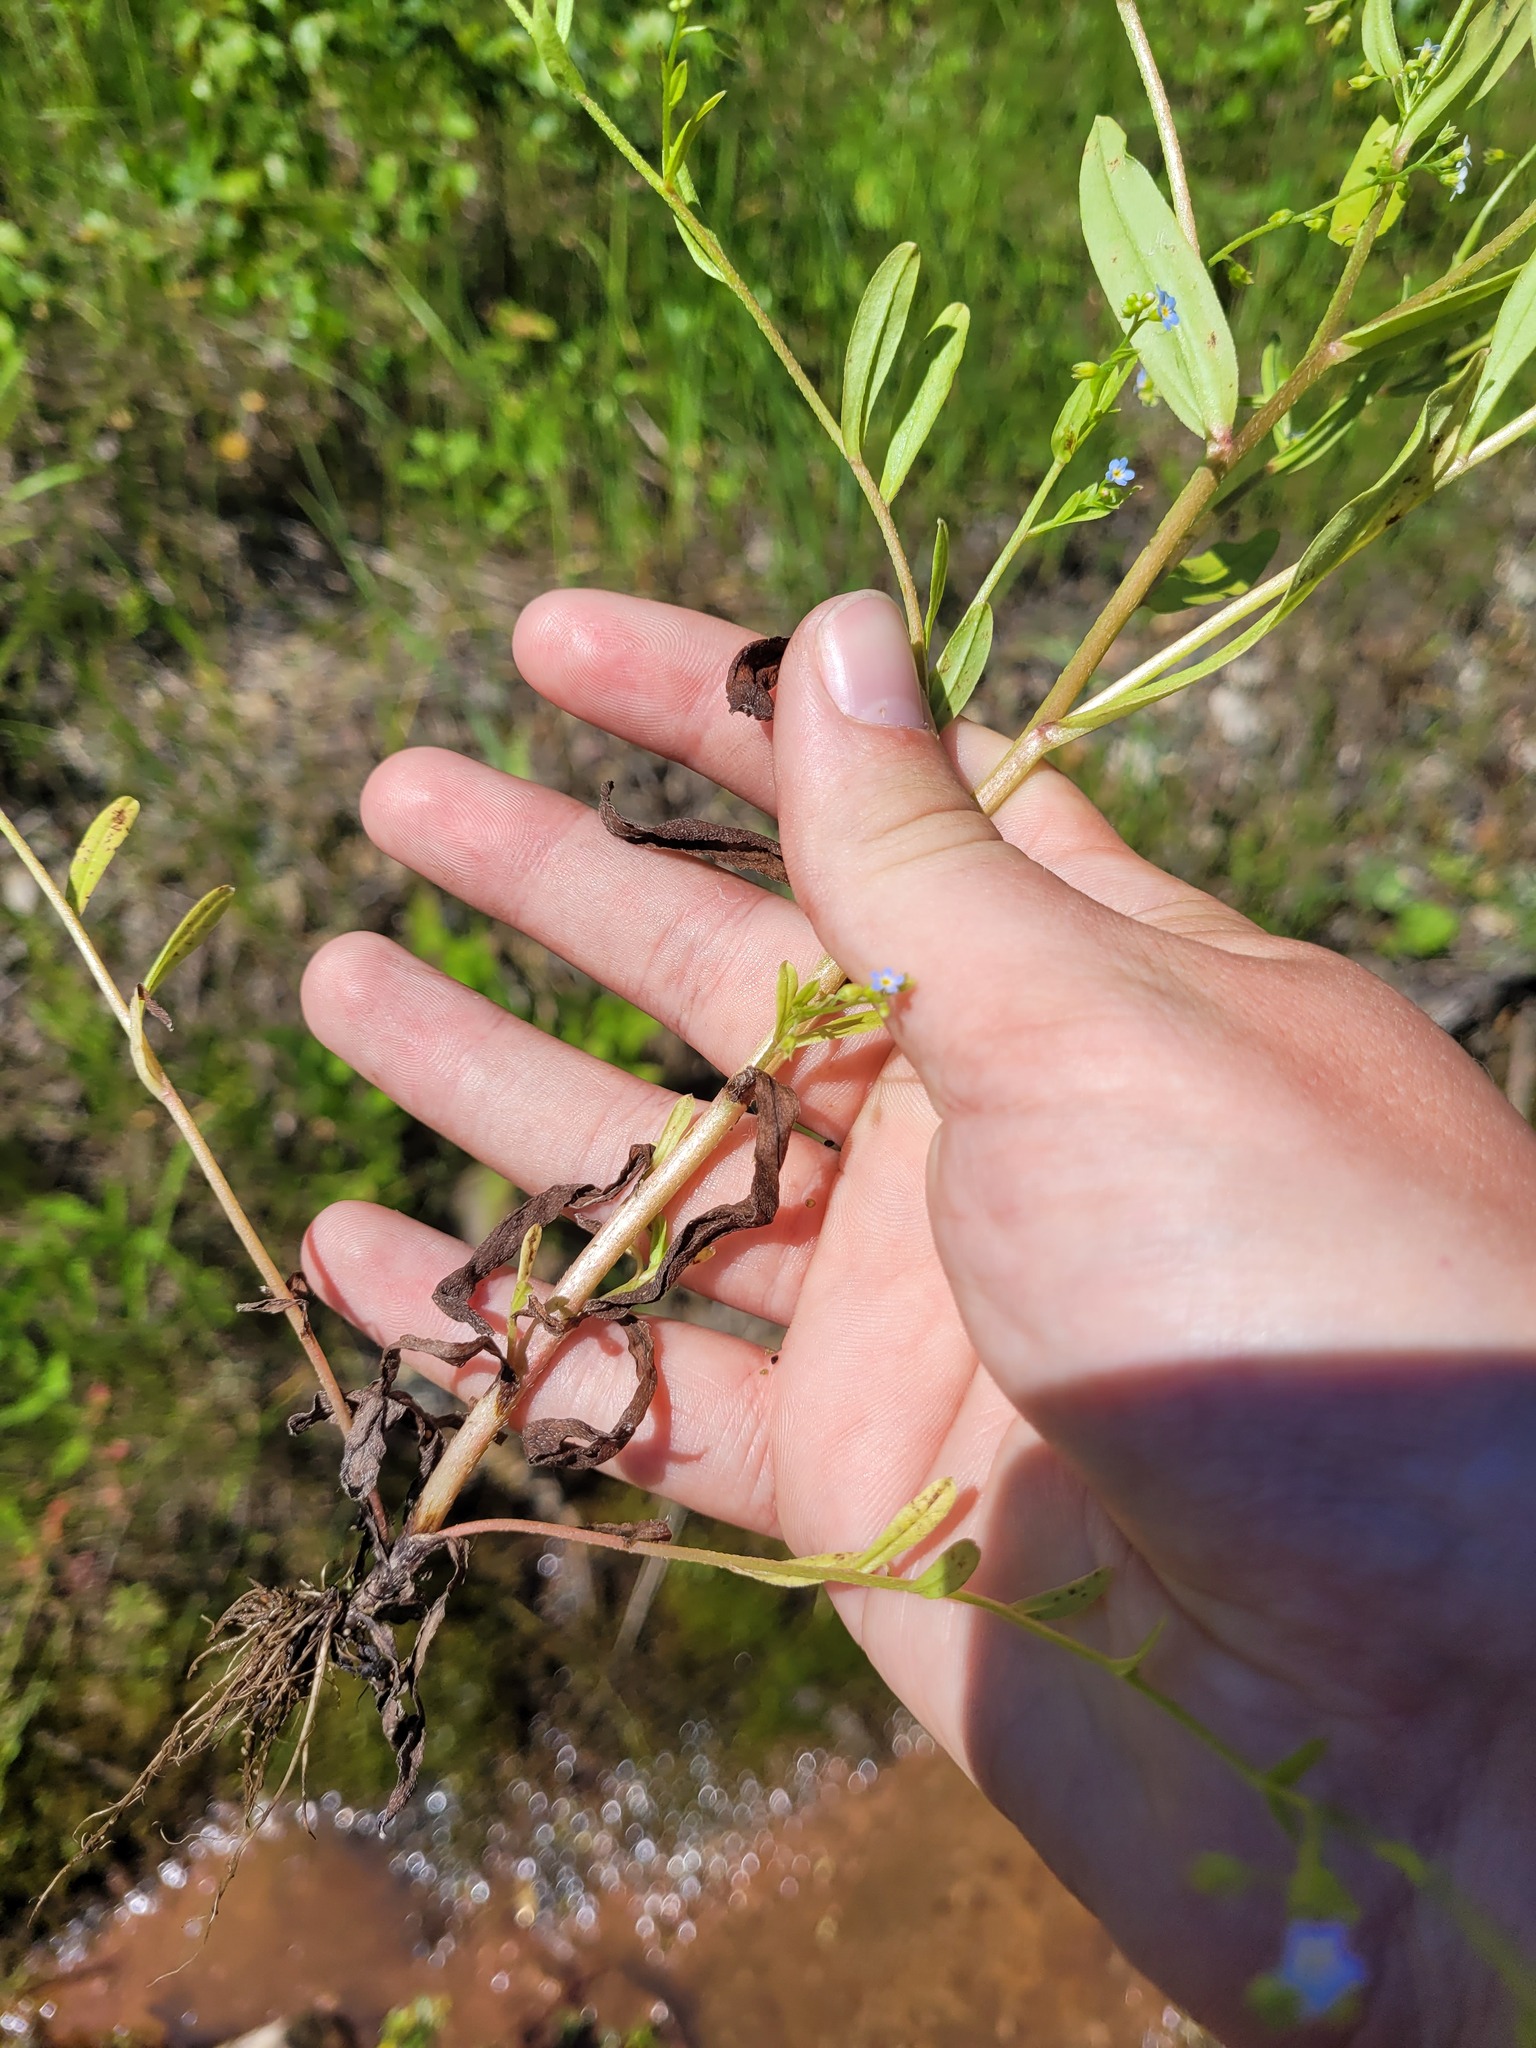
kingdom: Plantae
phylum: Tracheophyta
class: Magnoliopsida
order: Boraginales
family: Boraginaceae
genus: Myosotis
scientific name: Myosotis laxa
